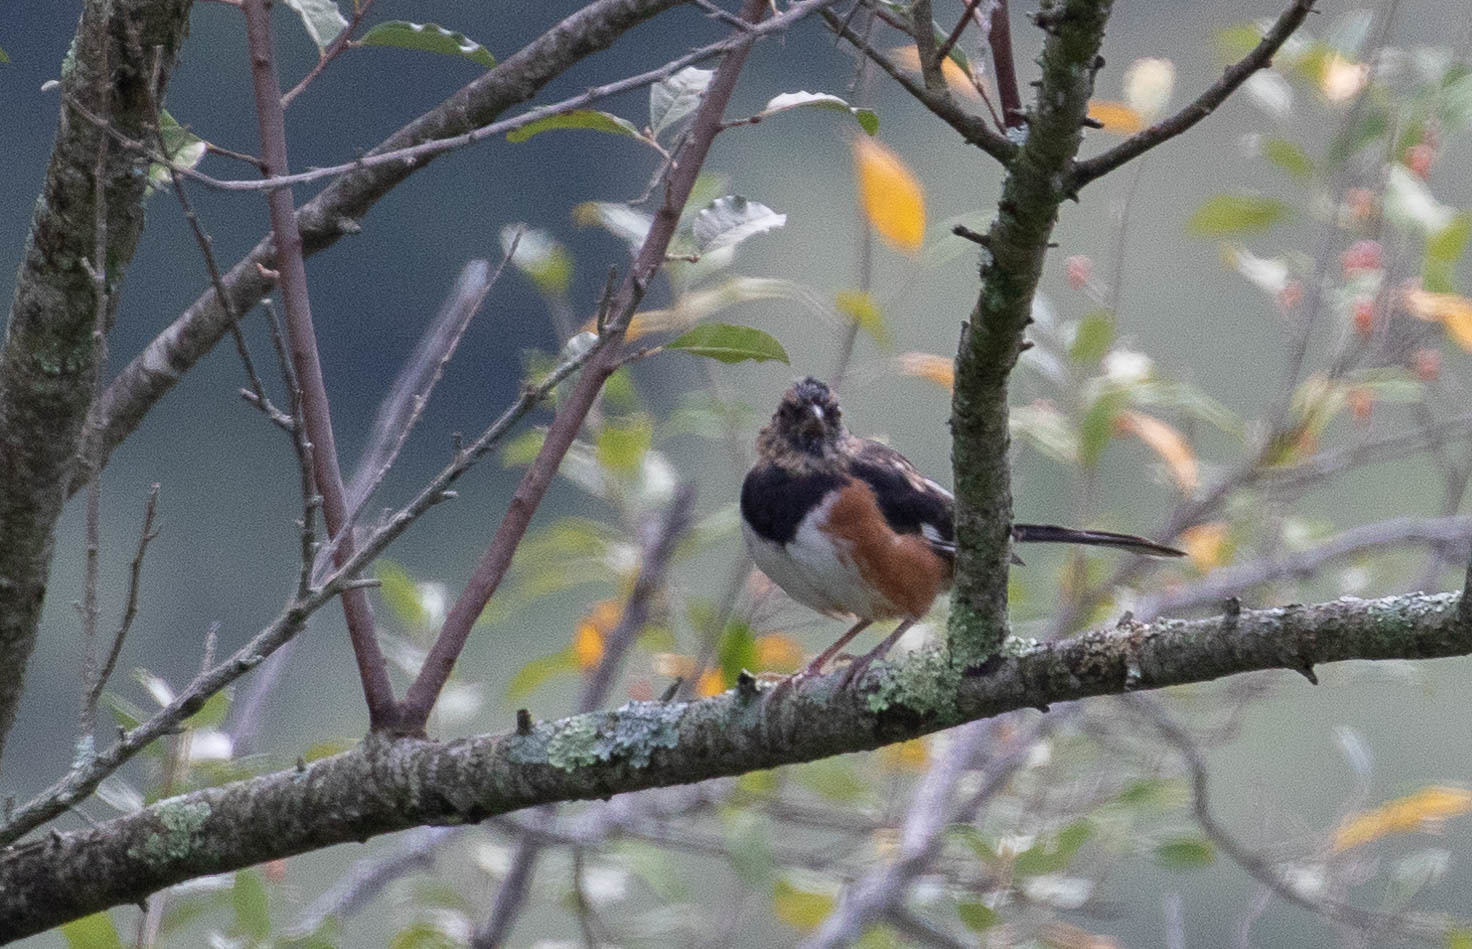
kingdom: Animalia
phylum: Chordata
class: Aves
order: Passeriformes
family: Passerellidae
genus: Pipilo
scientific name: Pipilo erythrophthalmus
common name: Eastern towhee
